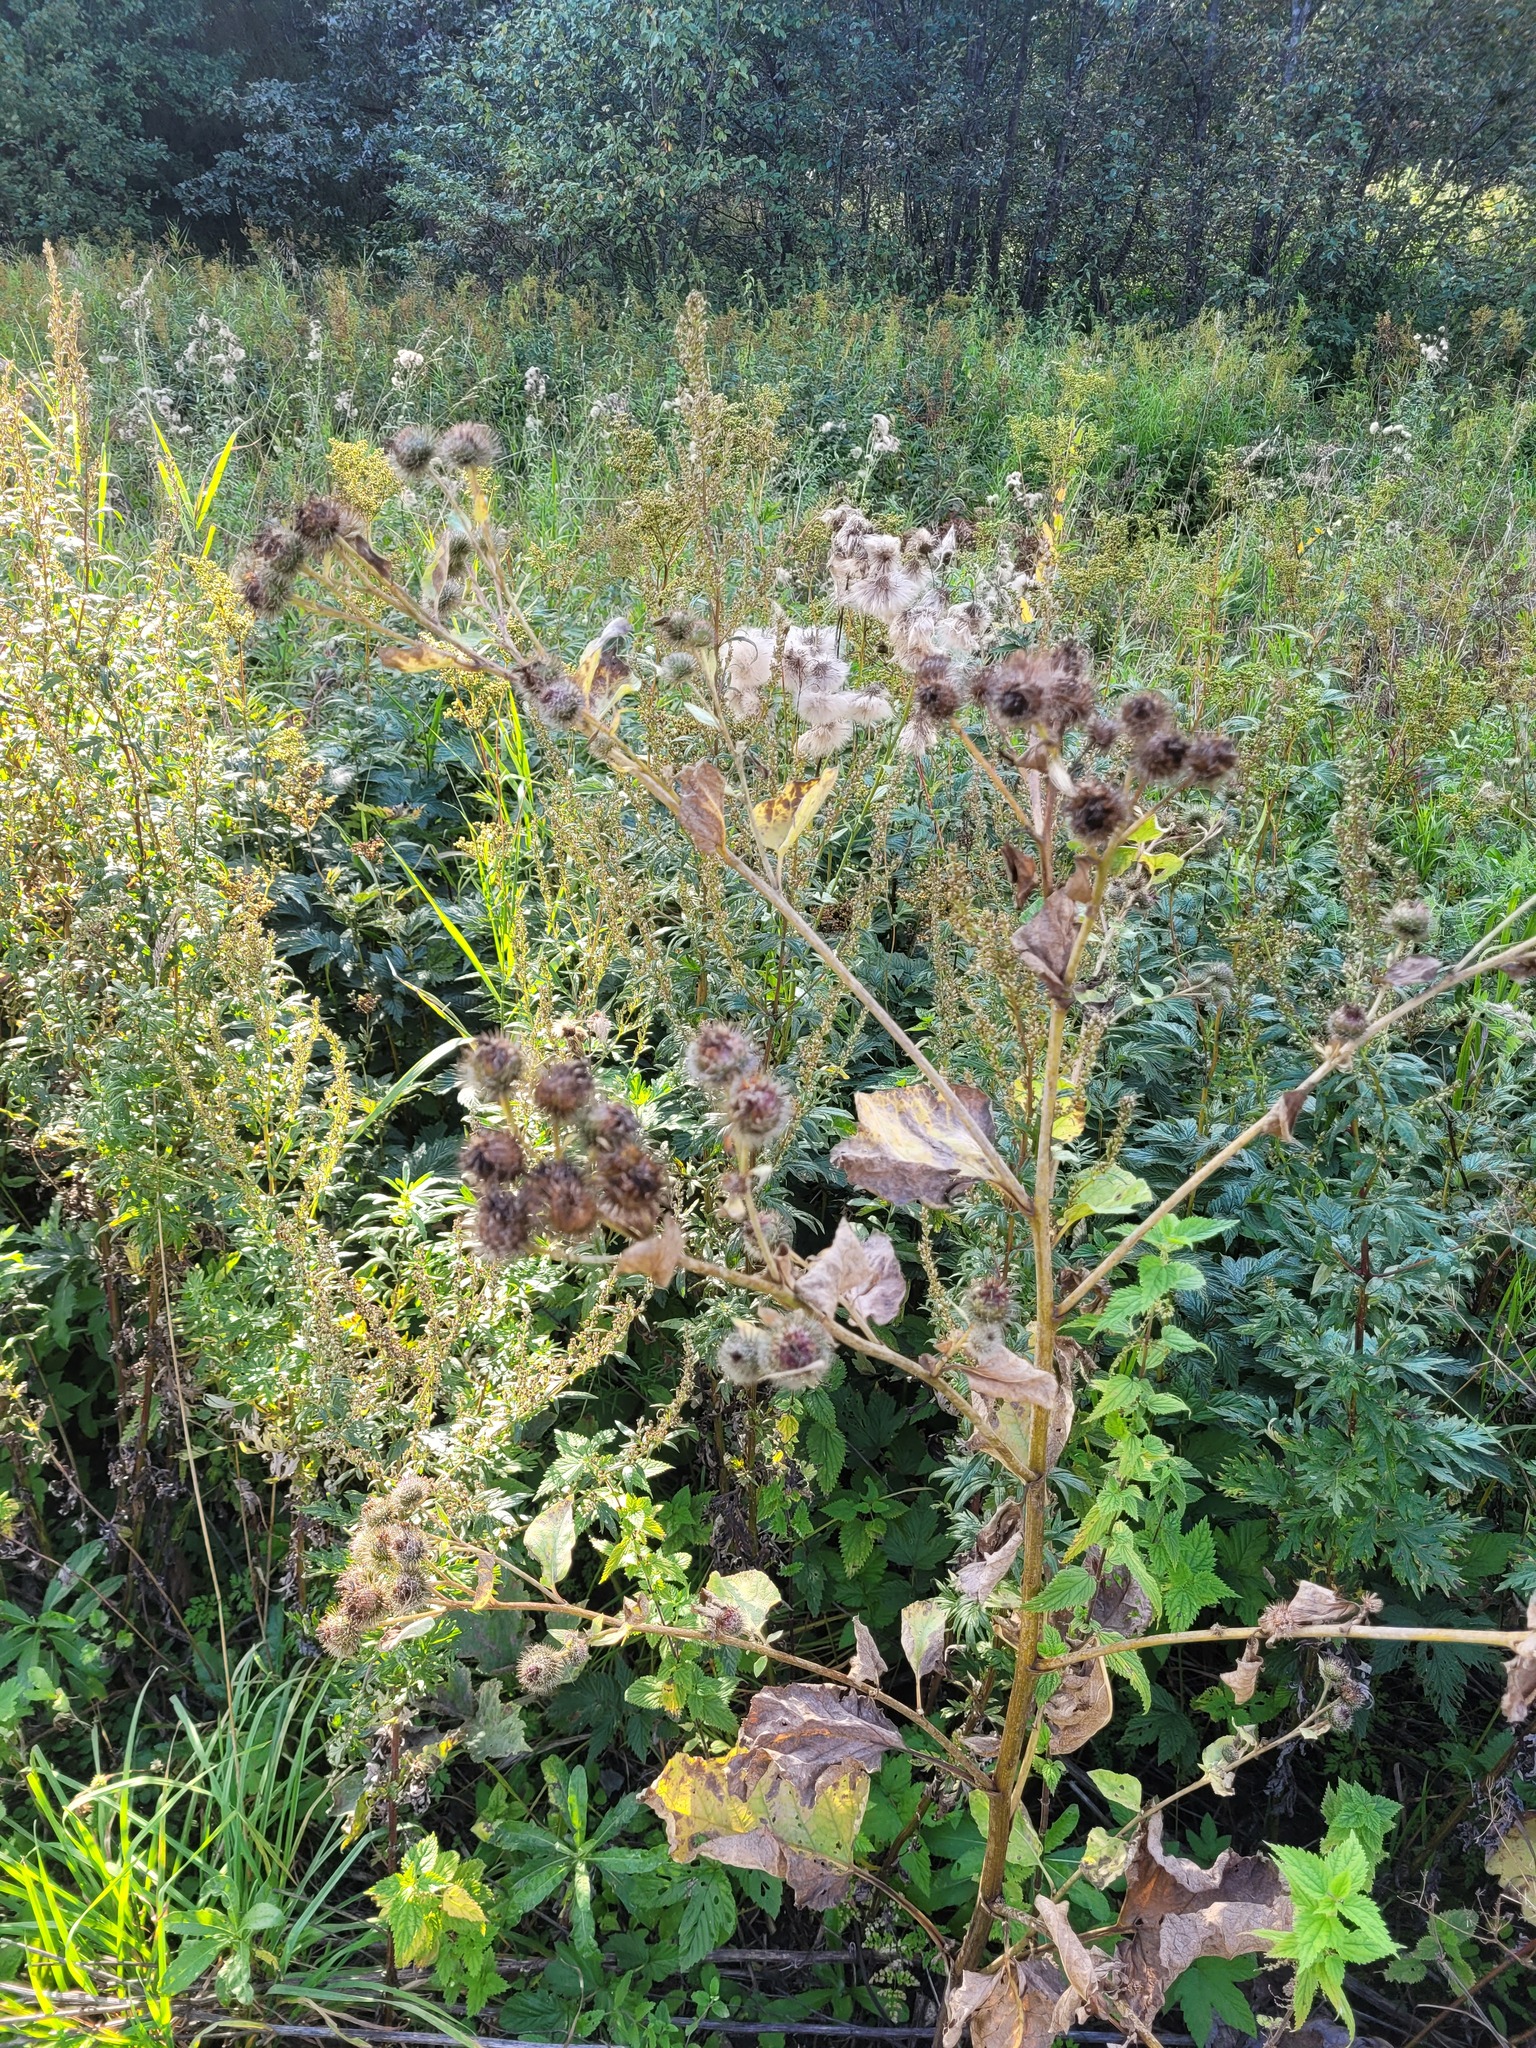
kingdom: Plantae
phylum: Tracheophyta
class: Magnoliopsida
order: Asterales
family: Asteraceae
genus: Arctium
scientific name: Arctium tomentosum
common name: Woolly burdock
